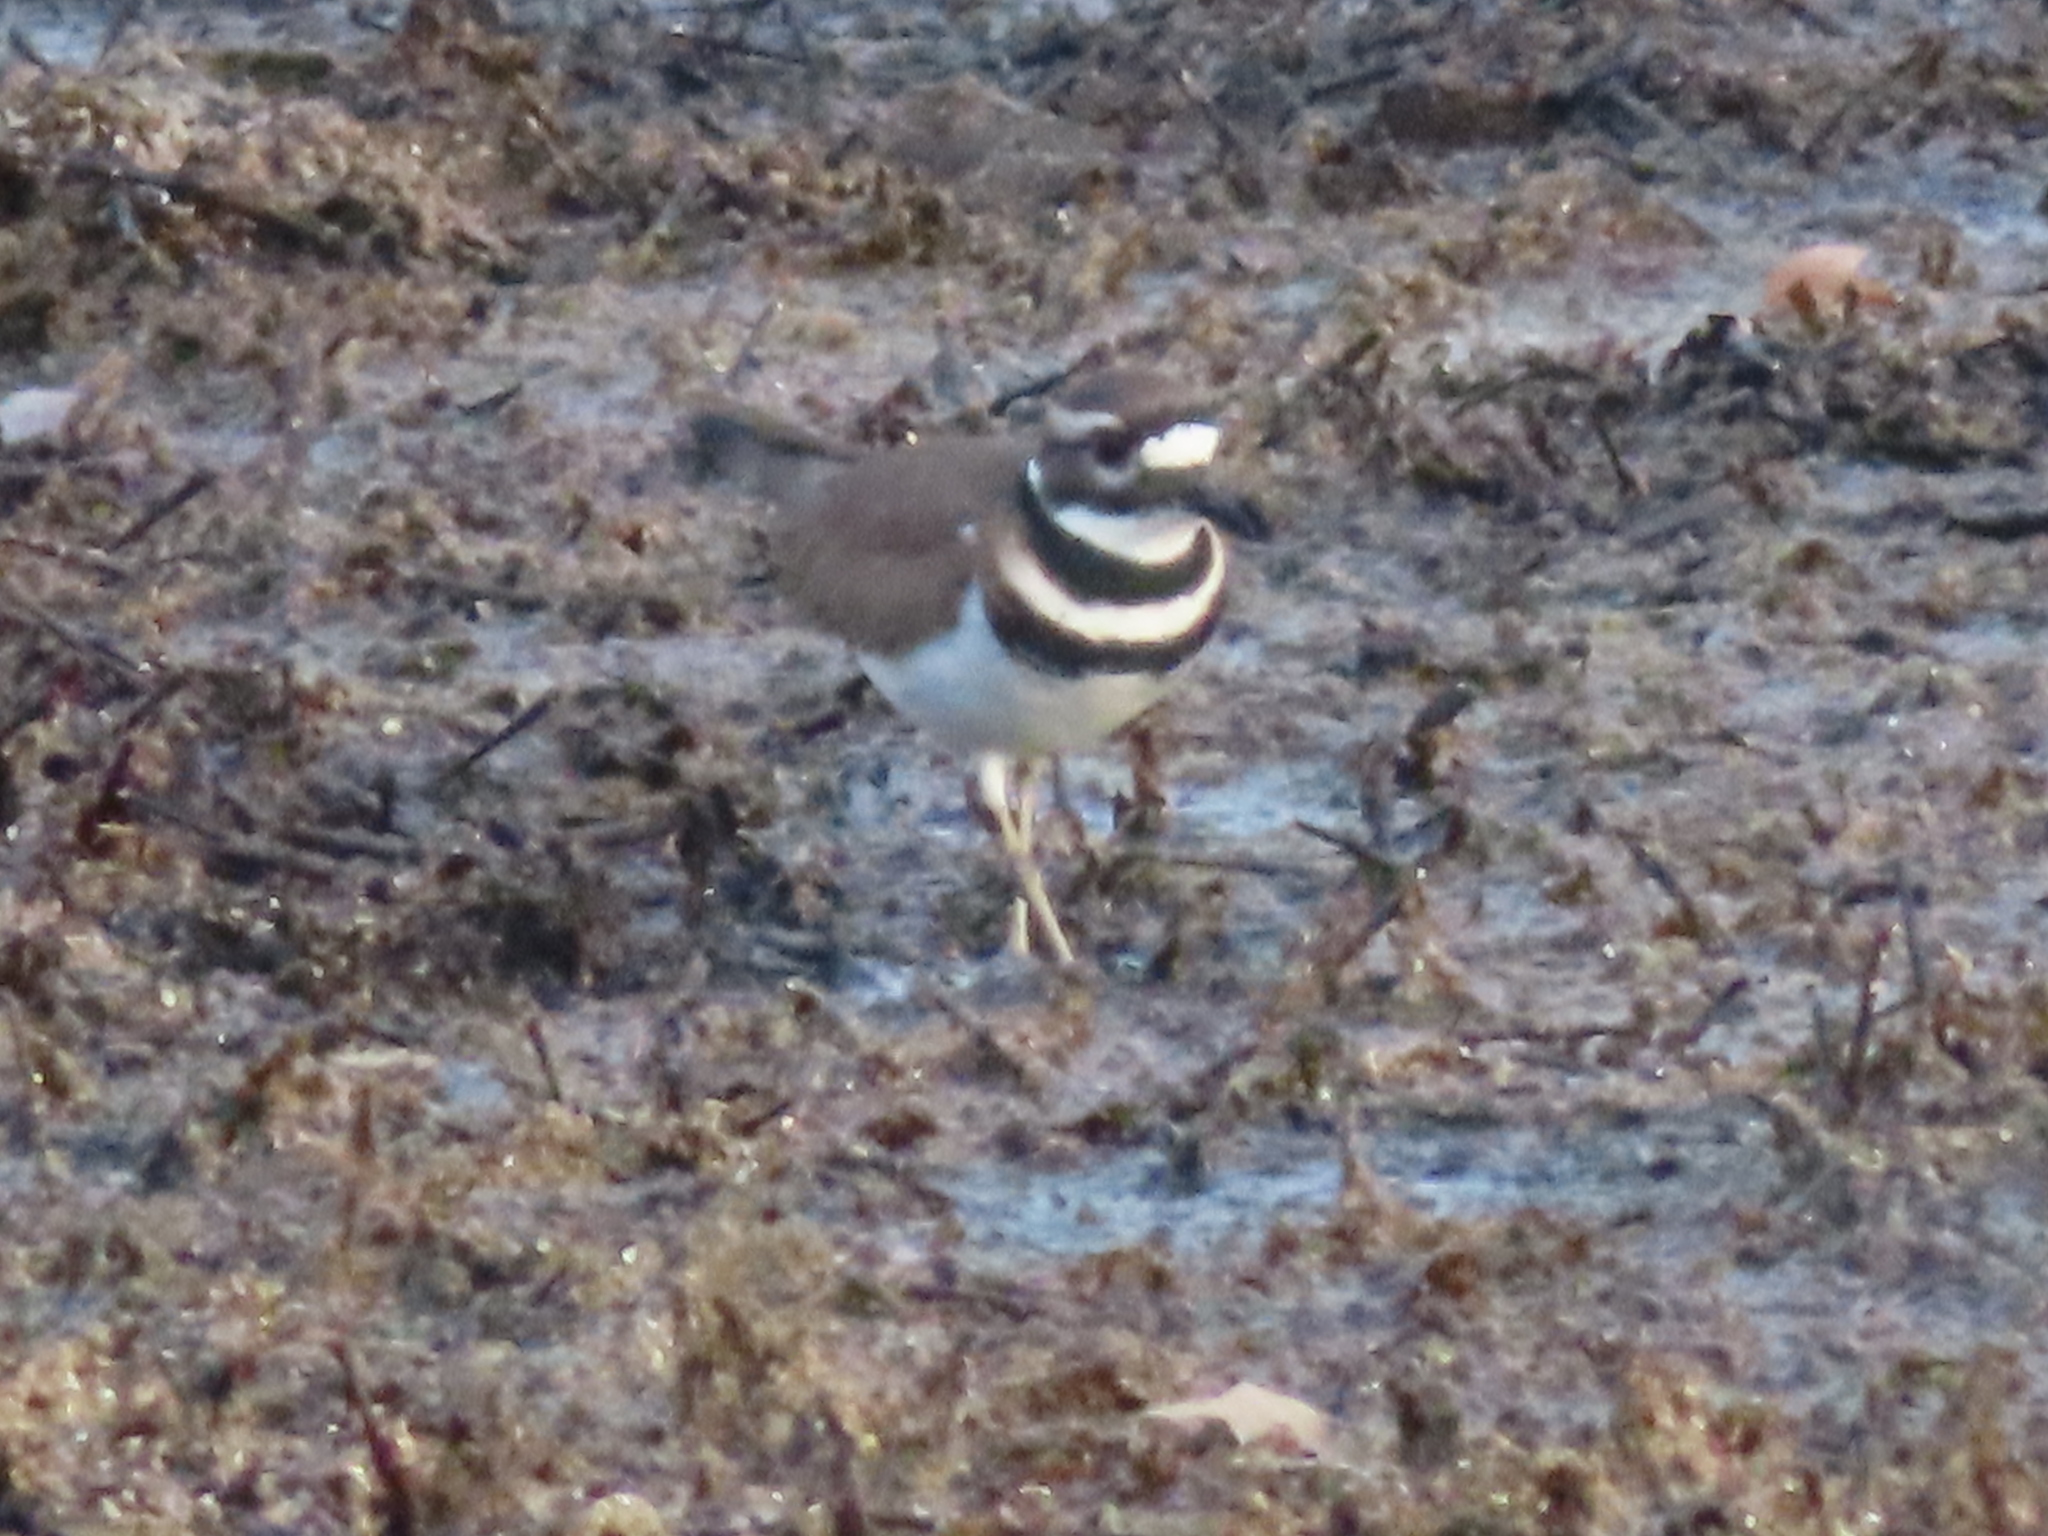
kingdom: Animalia
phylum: Chordata
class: Aves
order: Charadriiformes
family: Charadriidae
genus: Charadrius
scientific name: Charadrius vociferus
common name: Killdeer
